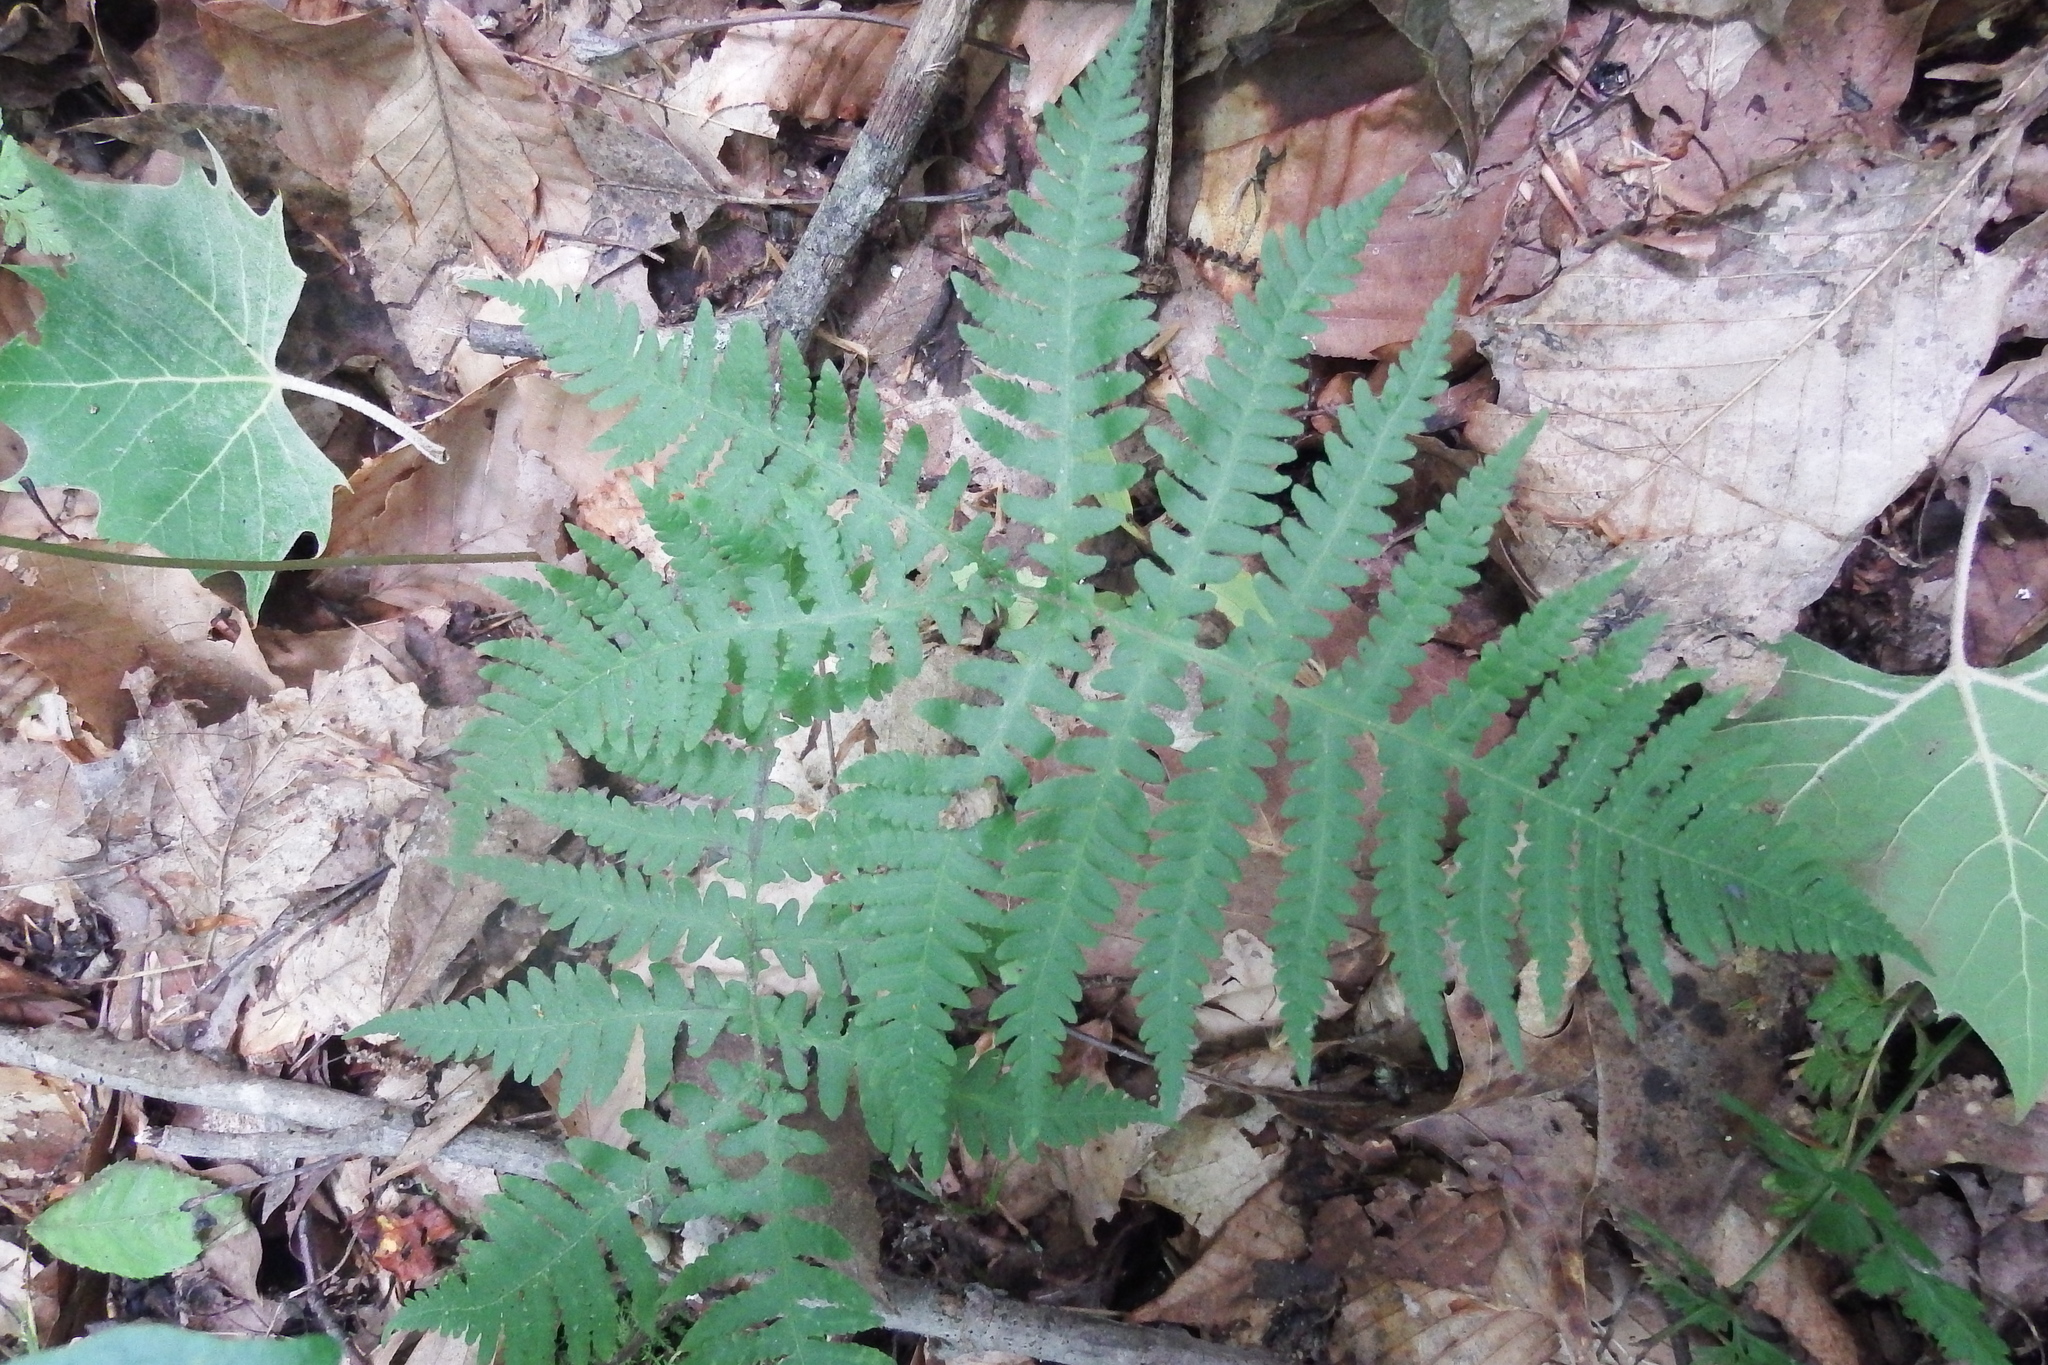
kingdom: Plantae
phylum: Tracheophyta
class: Polypodiopsida
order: Polypodiales
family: Thelypteridaceae
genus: Phegopteris
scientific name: Phegopteris hexagonoptera
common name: Broad beech fern
